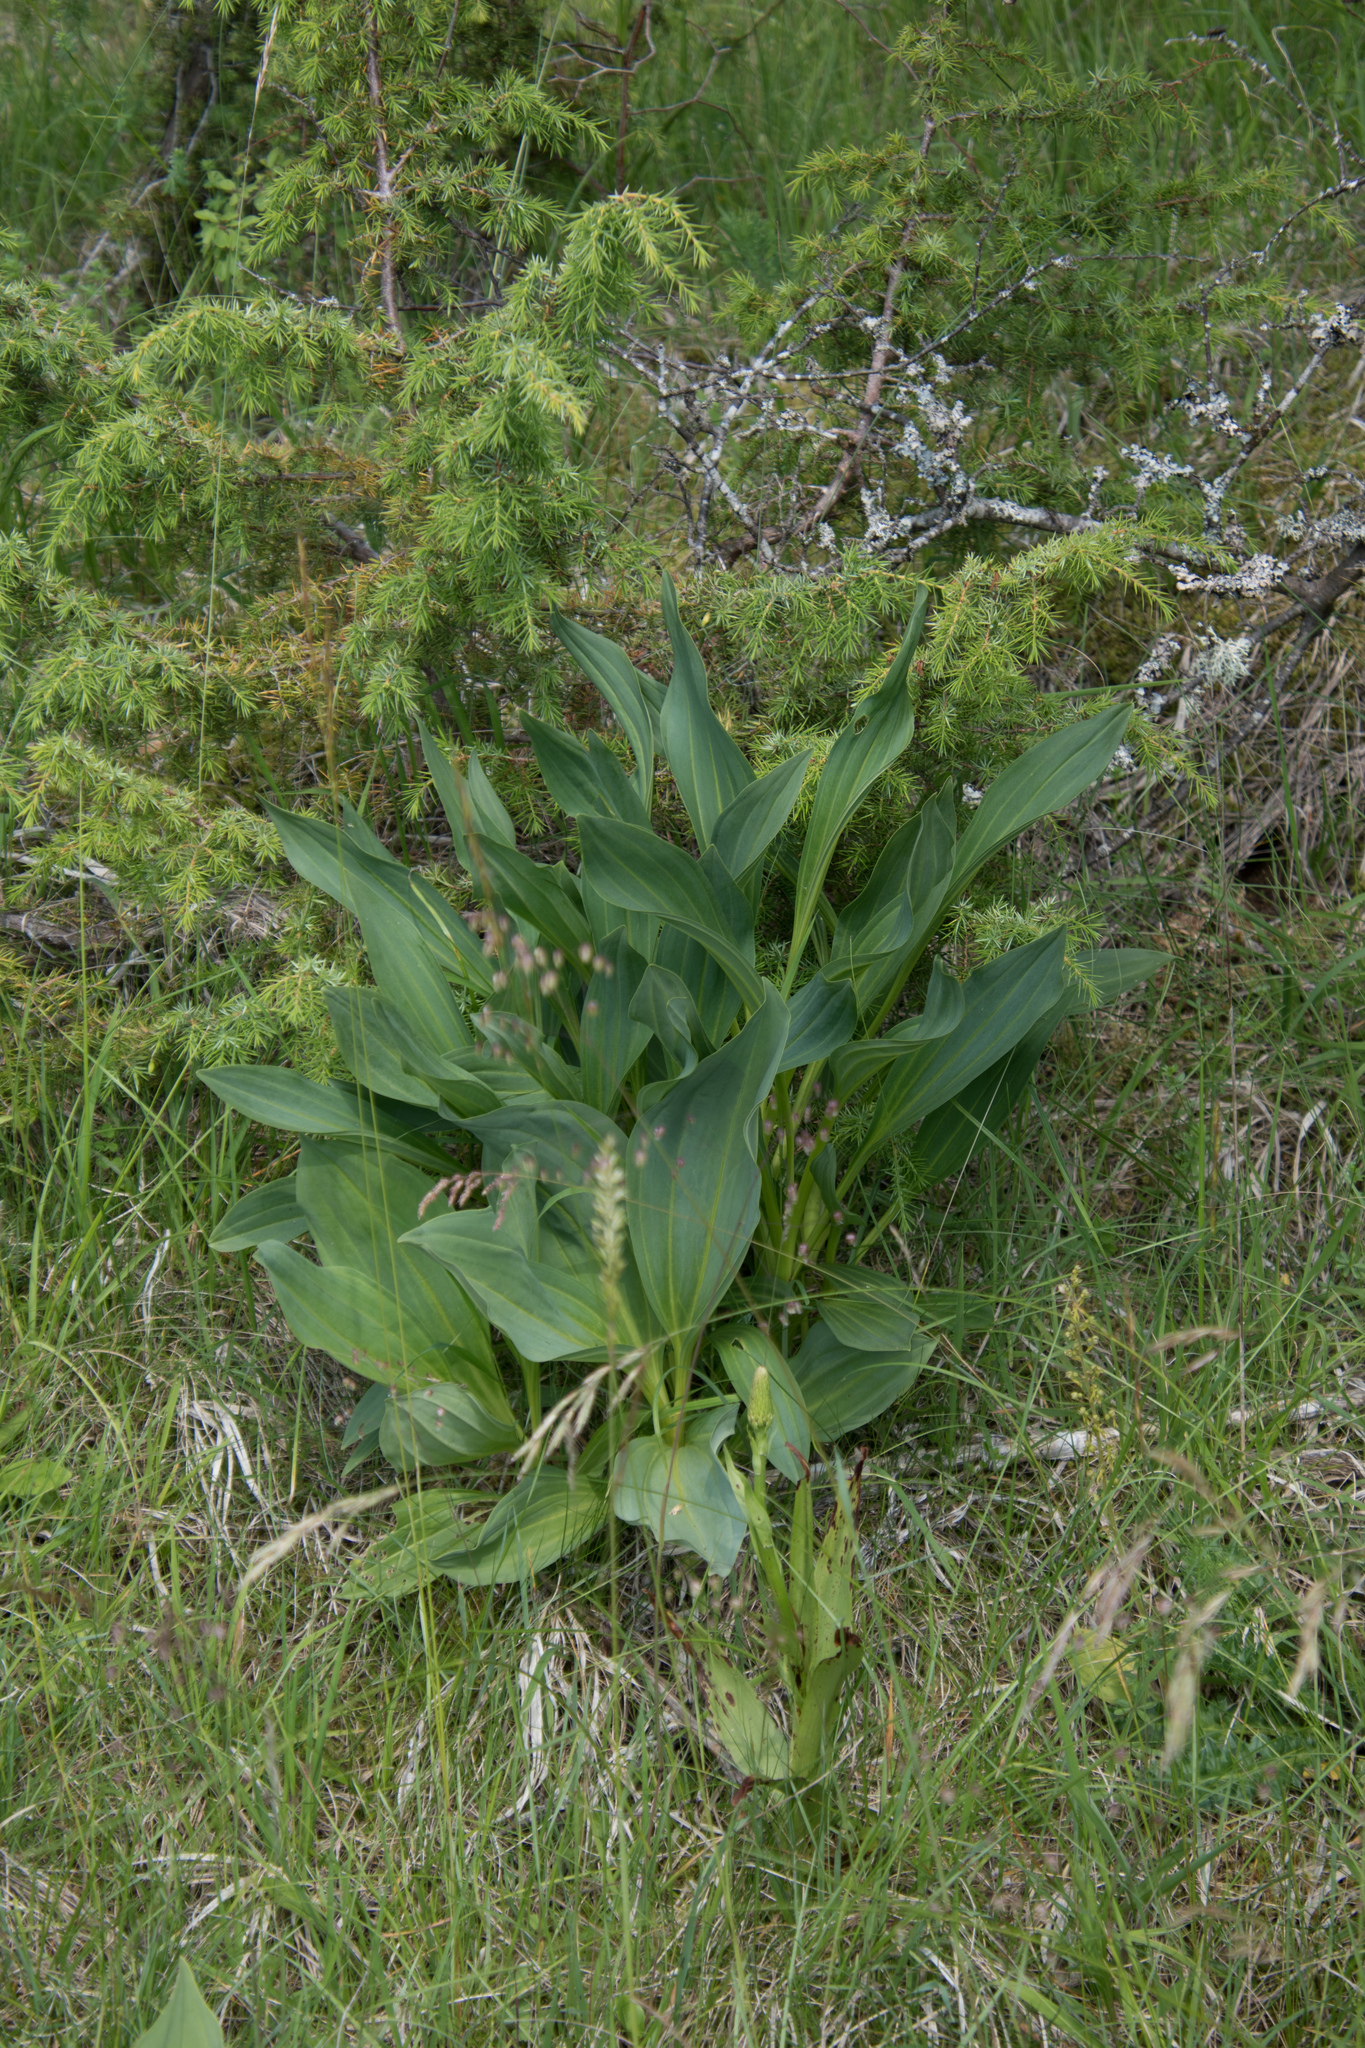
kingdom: Plantae
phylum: Tracheophyta
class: Magnoliopsida
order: Gentianales
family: Gentianaceae
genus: Gentiana
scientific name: Gentiana lutea
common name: Great yellow gentian
